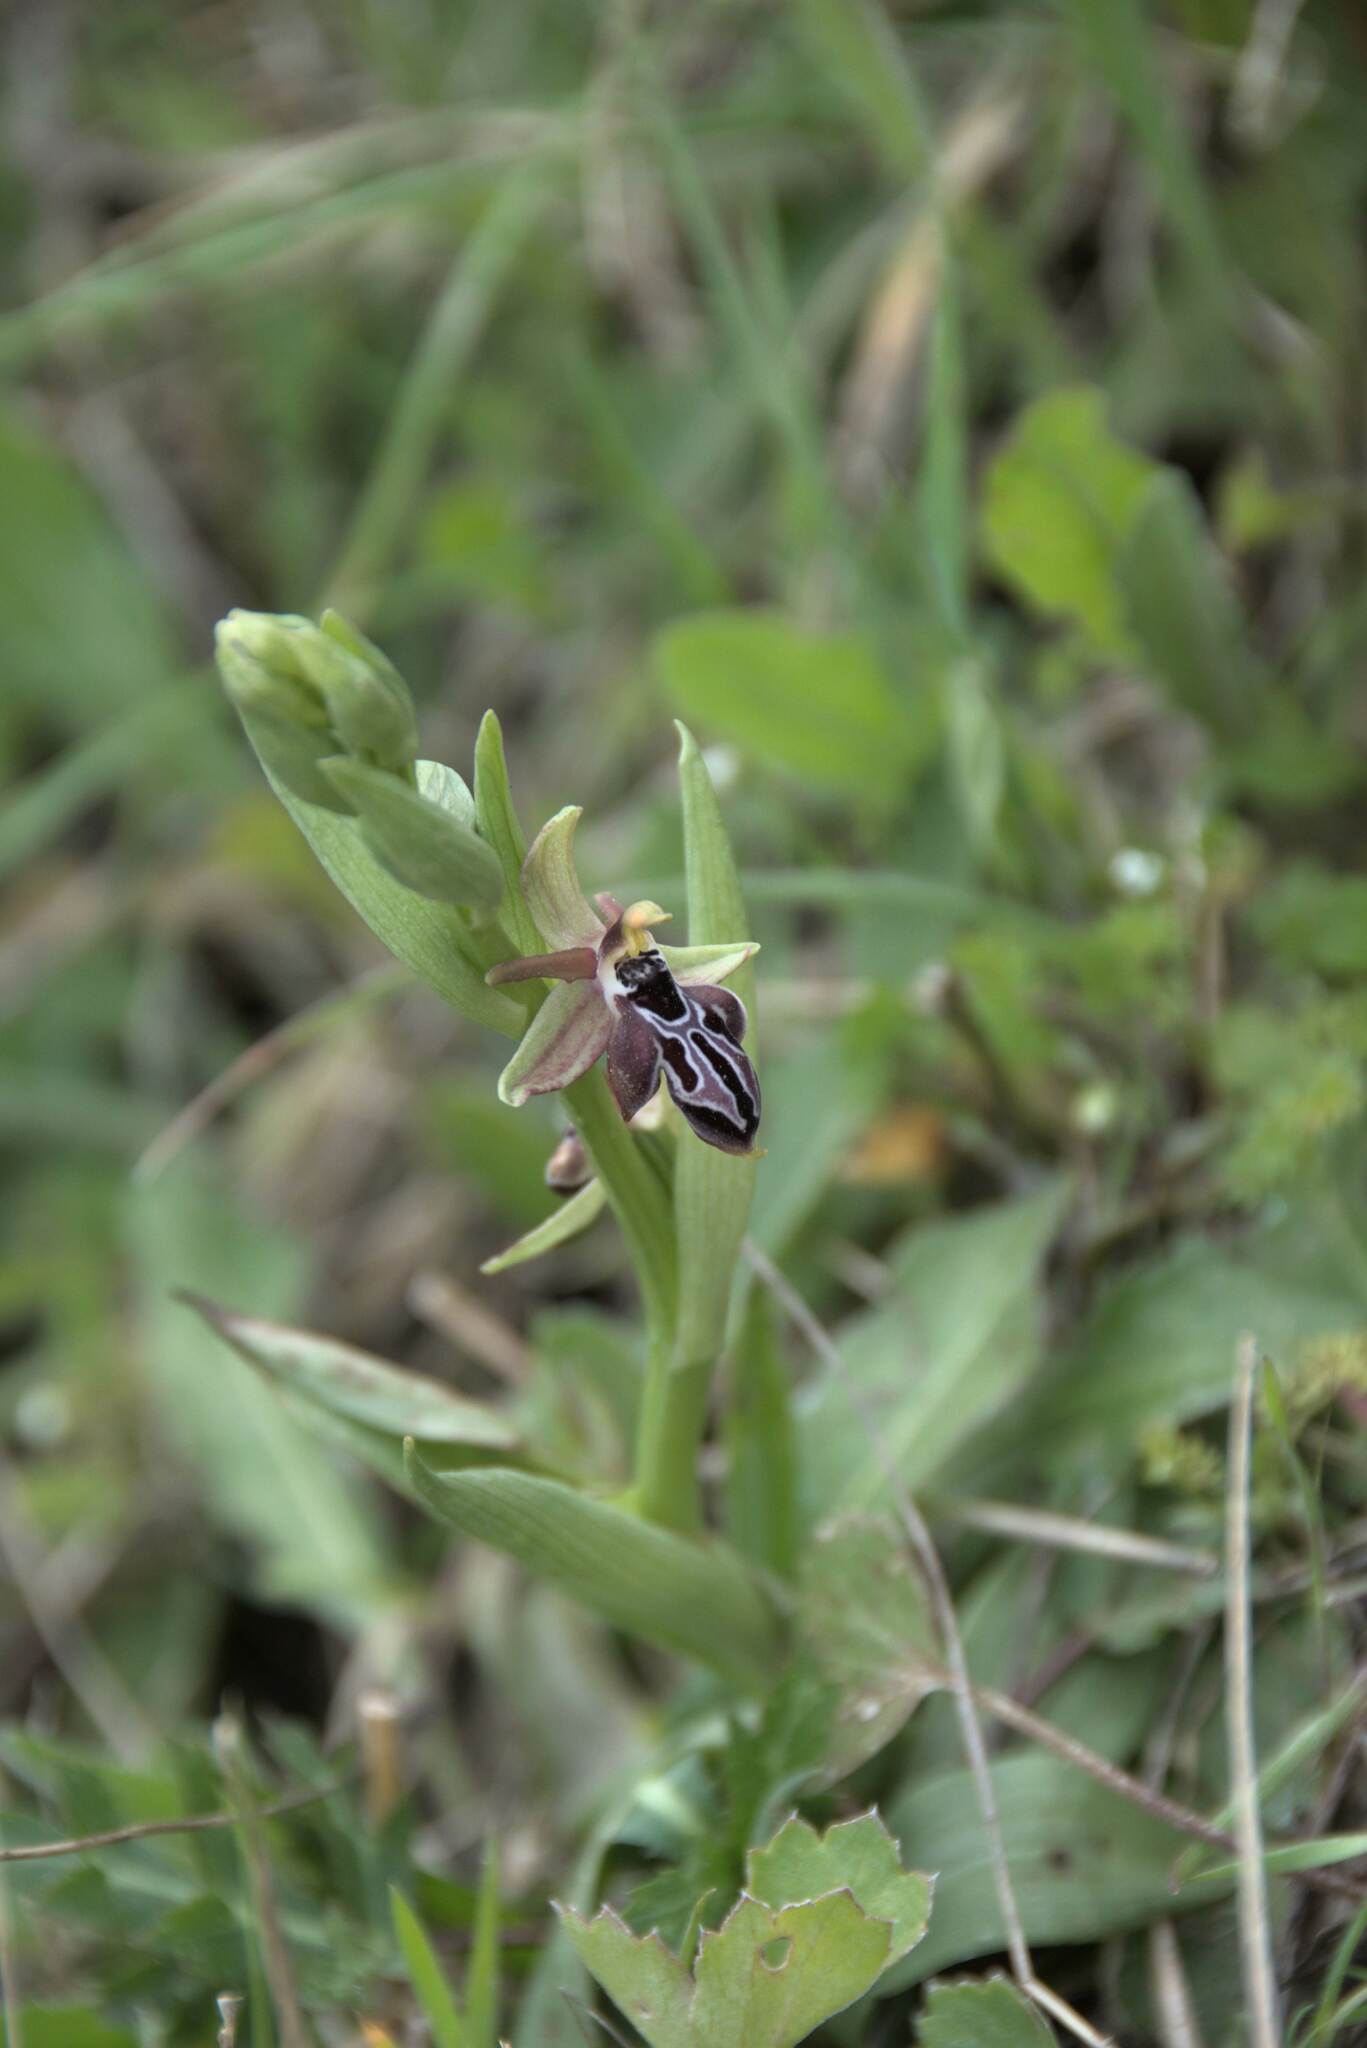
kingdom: Plantae
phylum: Tracheophyta
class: Liliopsida
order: Asparagales
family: Orchidaceae
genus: Ophrys
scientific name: Ophrys cretica
